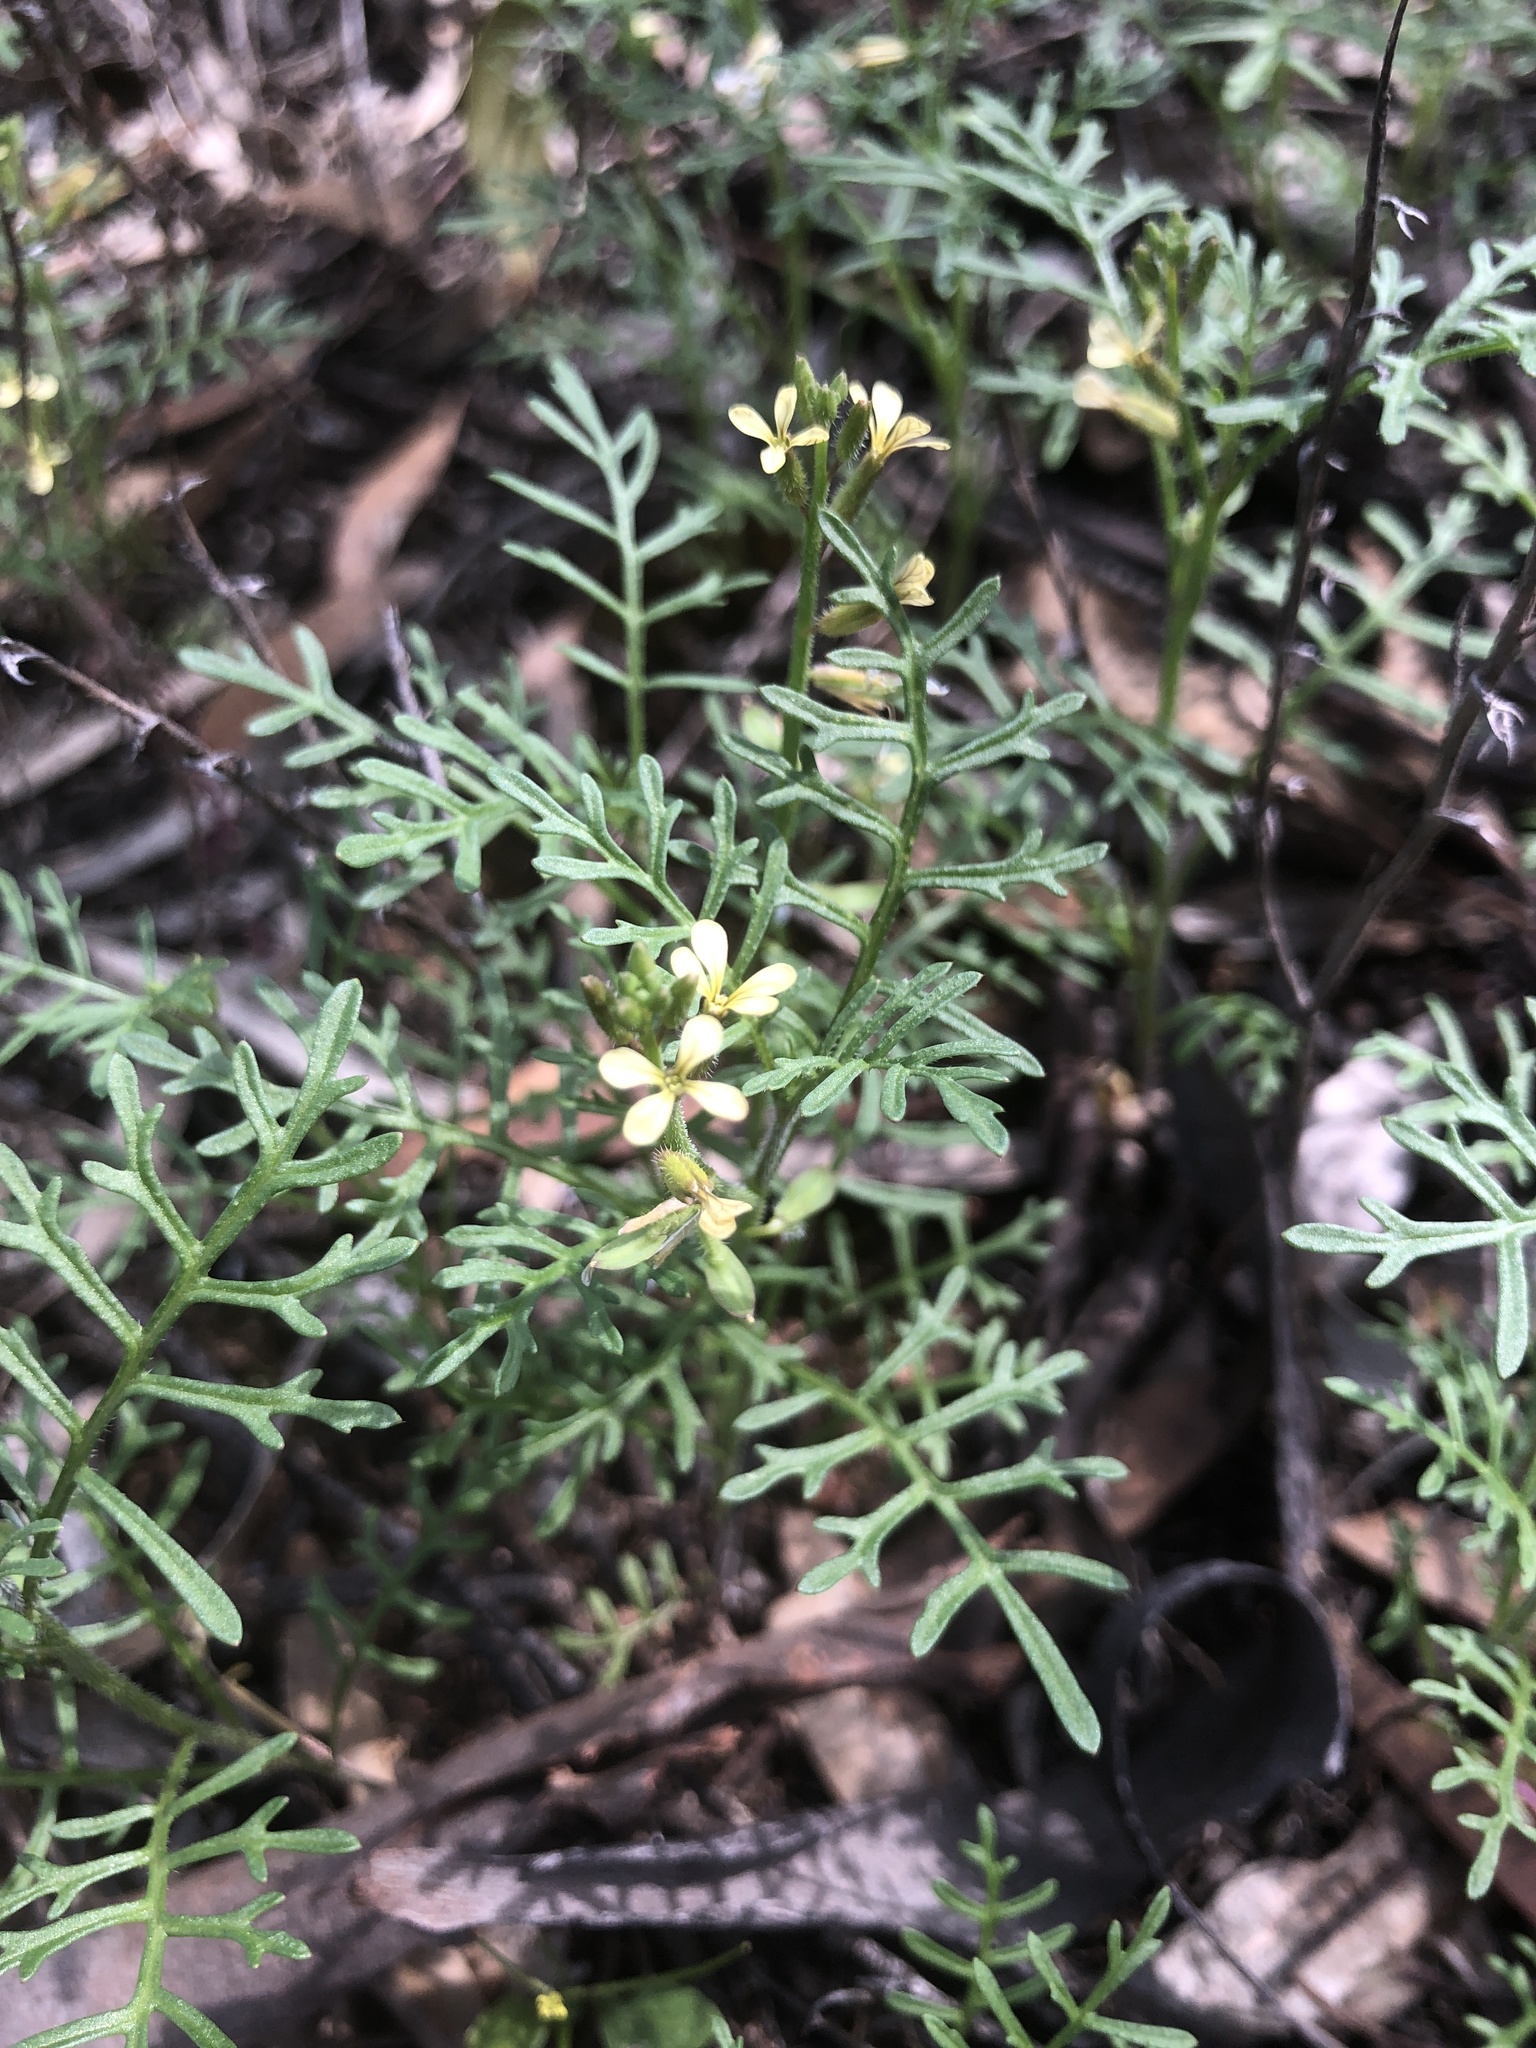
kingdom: Plantae
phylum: Tracheophyta
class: Magnoliopsida
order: Brassicales
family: Brassicaceae
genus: Carrichtera
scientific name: Carrichtera annua
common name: Cress rocket
